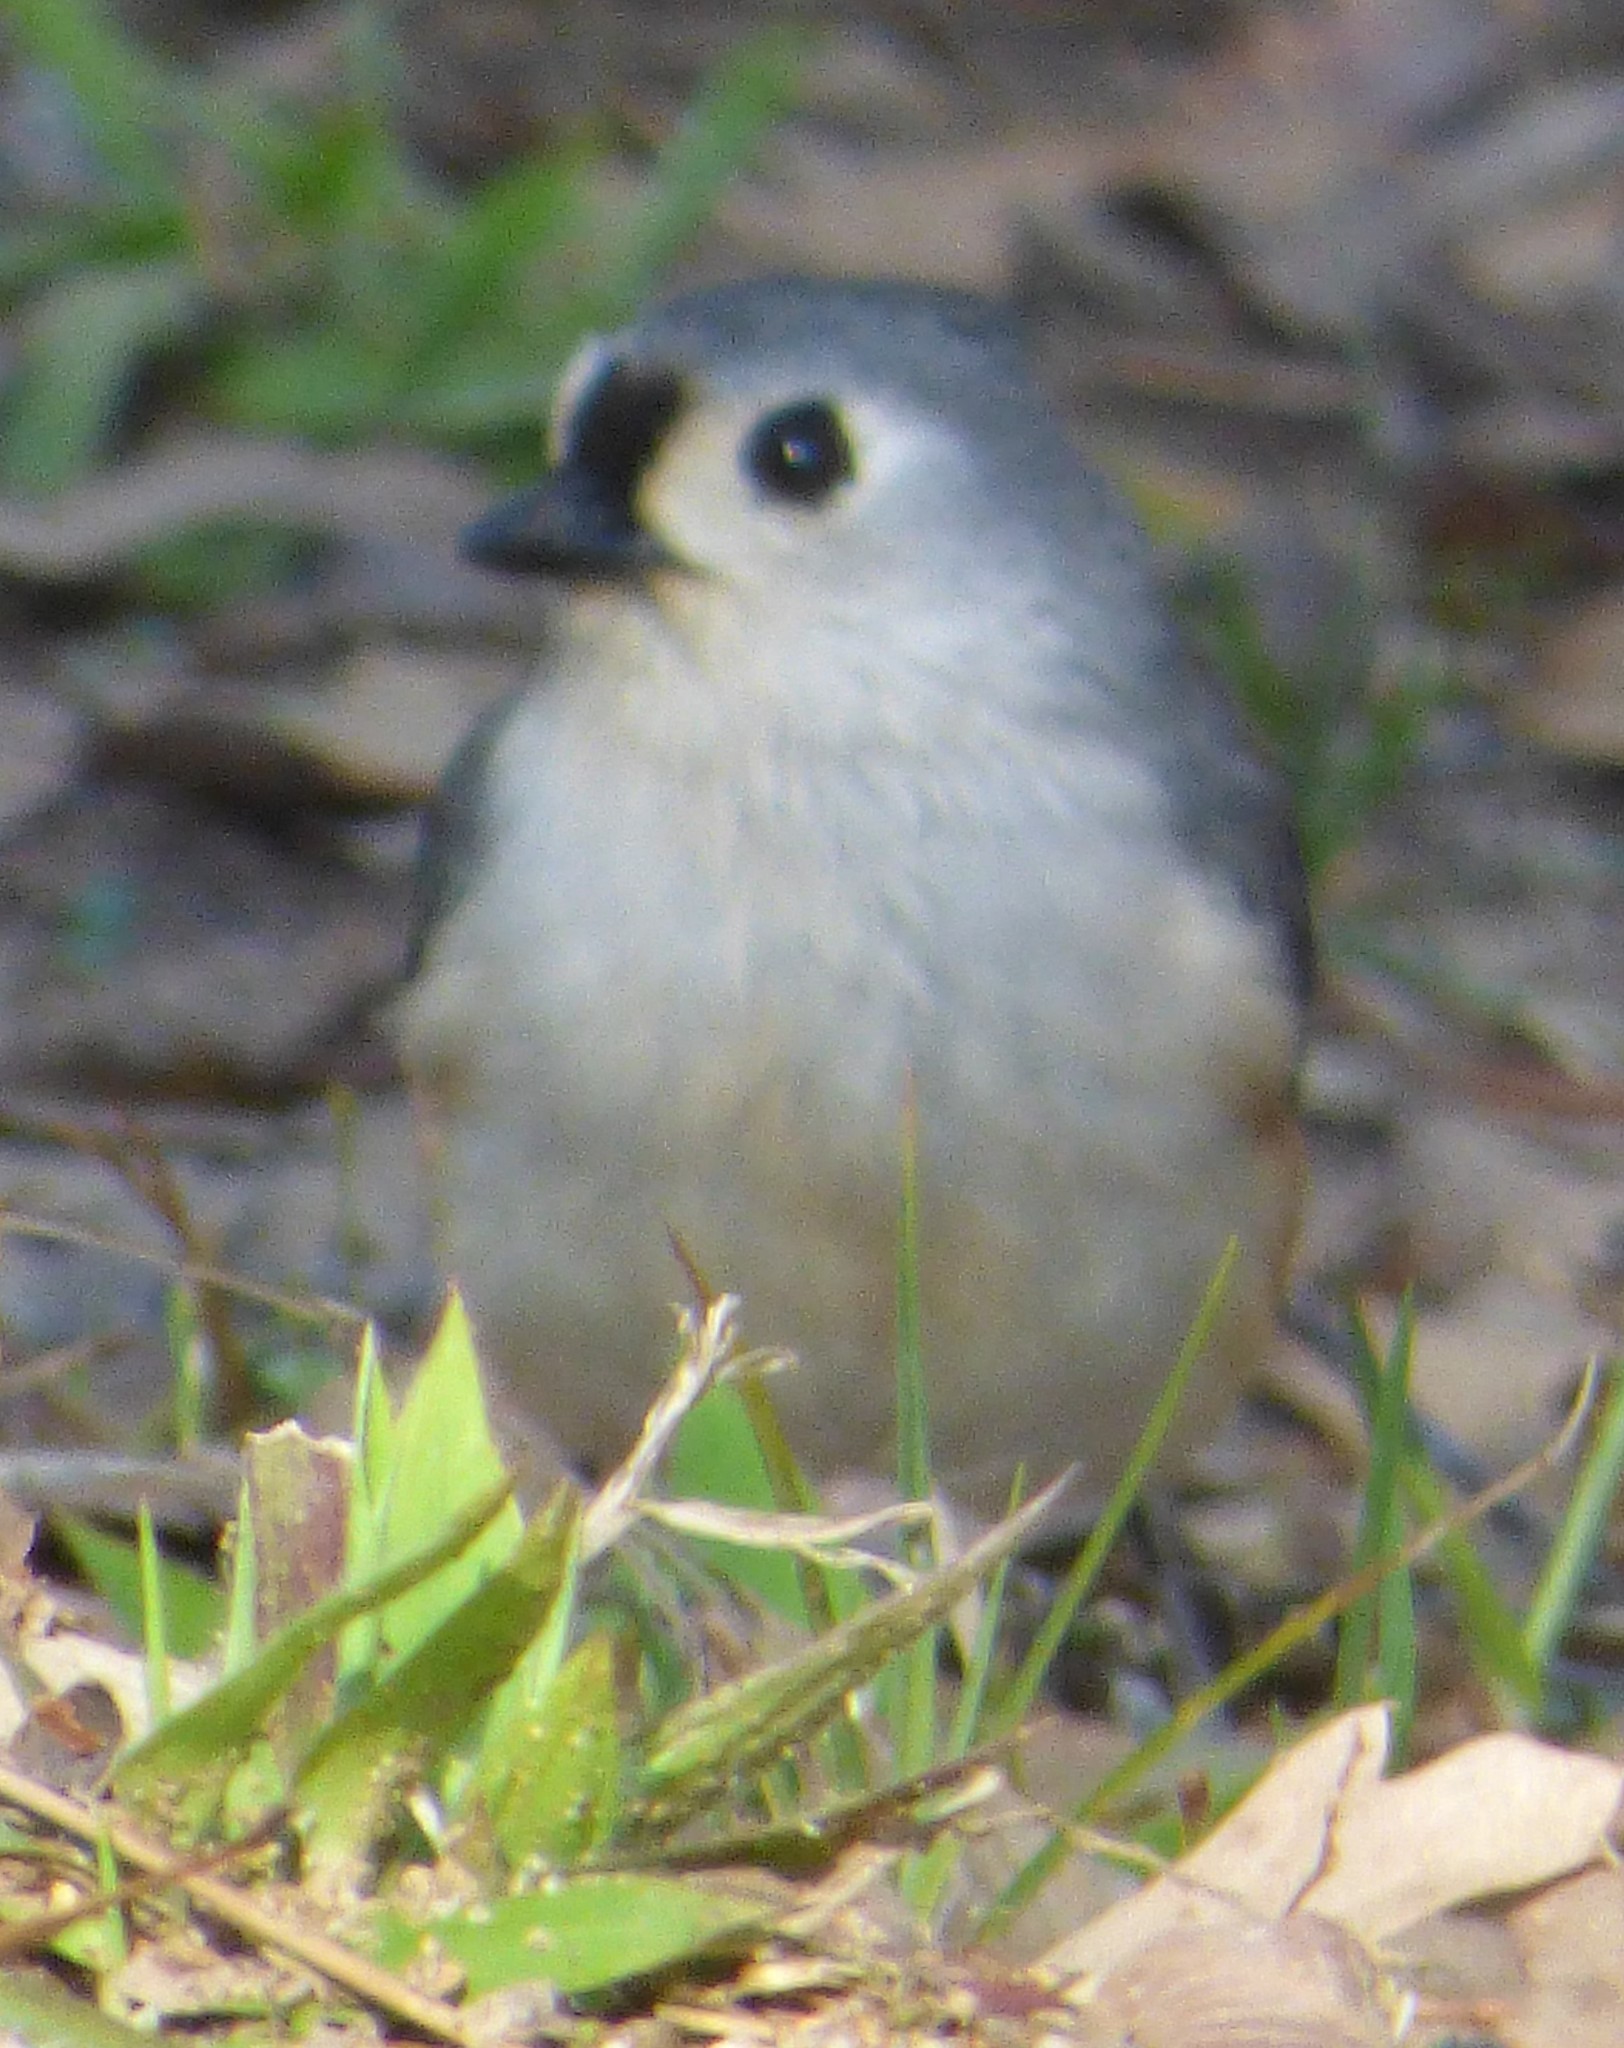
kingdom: Animalia
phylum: Chordata
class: Aves
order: Passeriformes
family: Paridae
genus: Baeolophus
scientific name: Baeolophus bicolor
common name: Tufted titmouse
